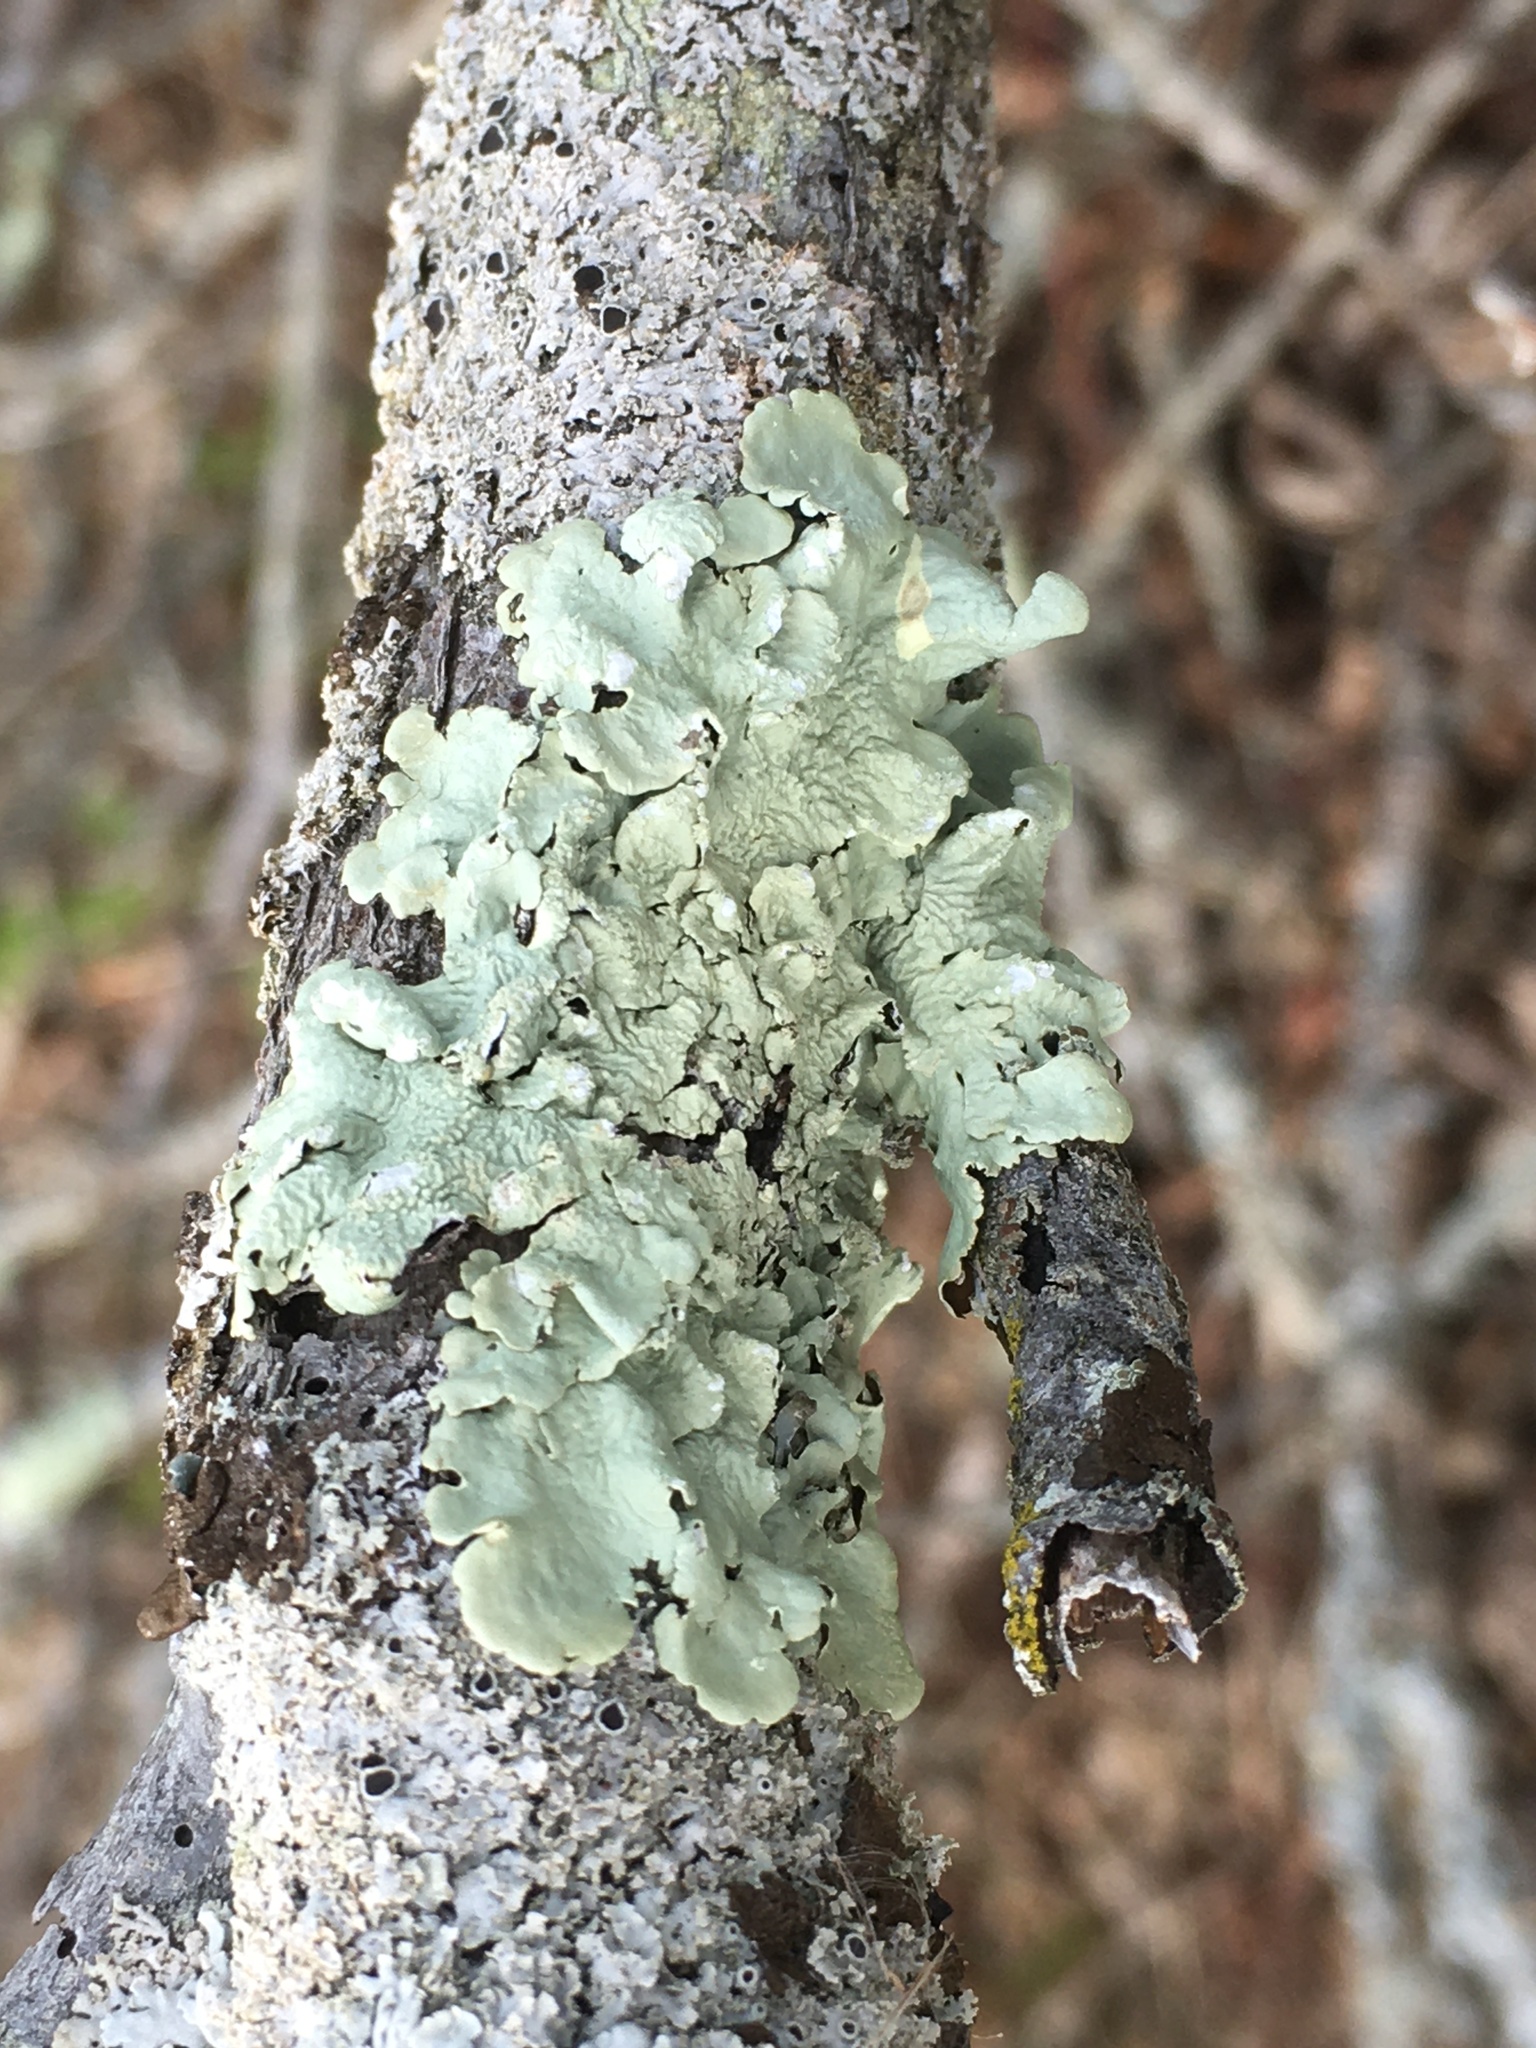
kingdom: Fungi
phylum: Ascomycota
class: Lecanoromycetes
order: Lecanorales
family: Parmeliaceae
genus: Flavoparmelia
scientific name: Flavoparmelia caperata
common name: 40-mile per hour lichen
